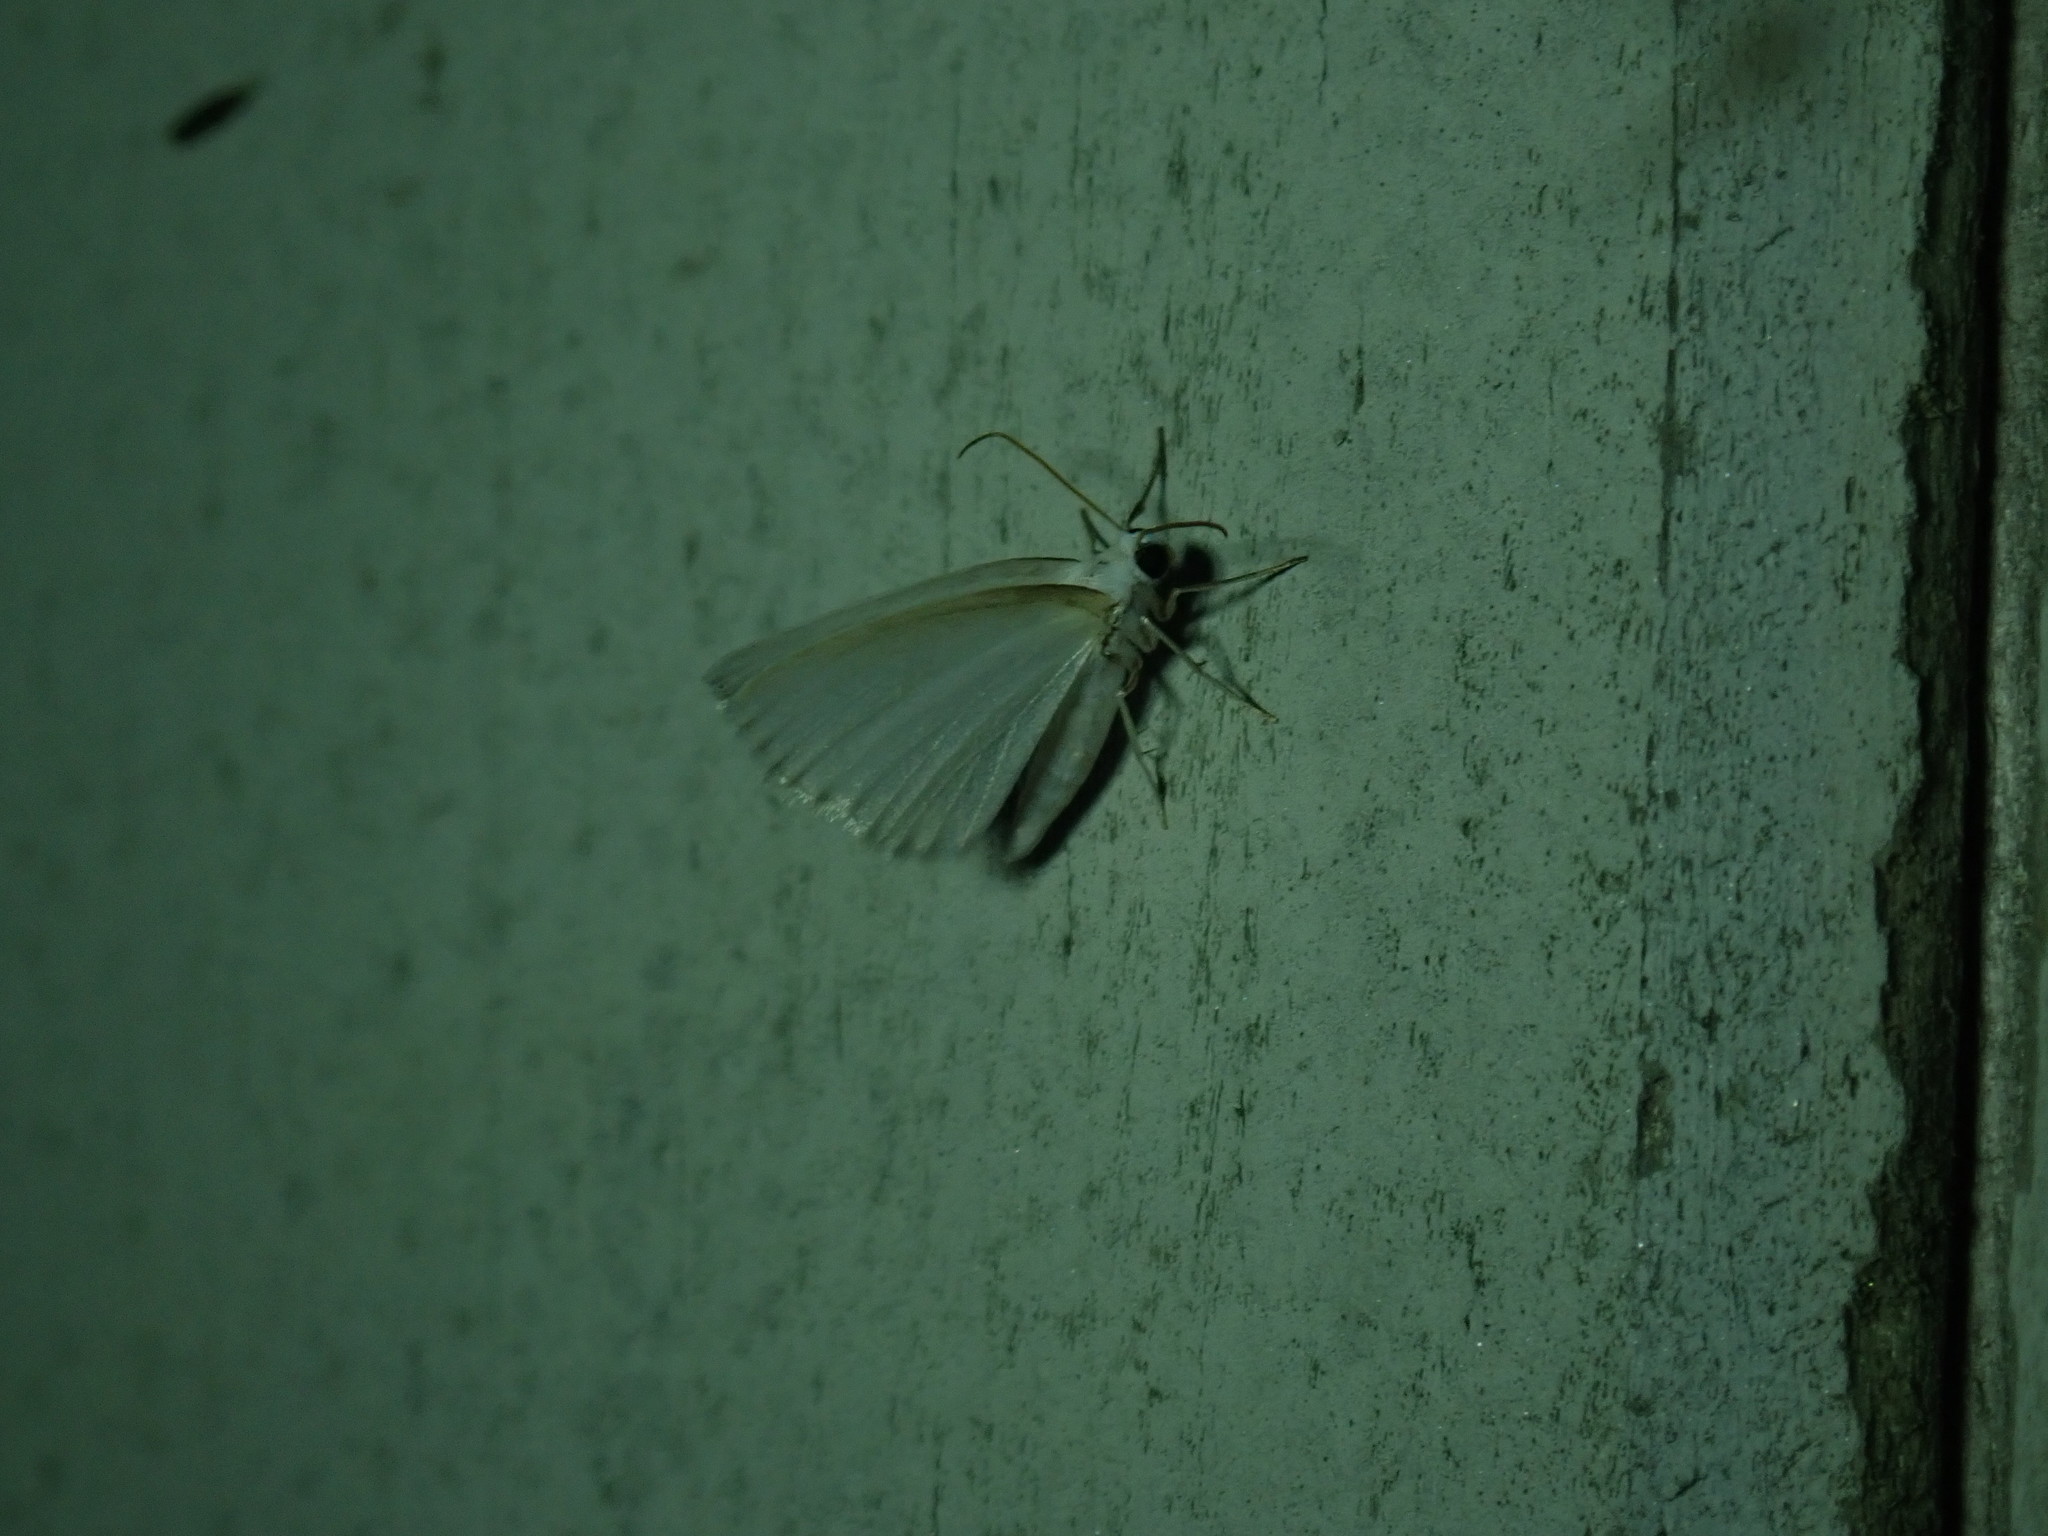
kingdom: Animalia
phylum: Arthropoda
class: Insecta
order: Lepidoptera
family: Geometridae
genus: Lomographa
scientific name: Lomographa vestaliata
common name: White spring moth
